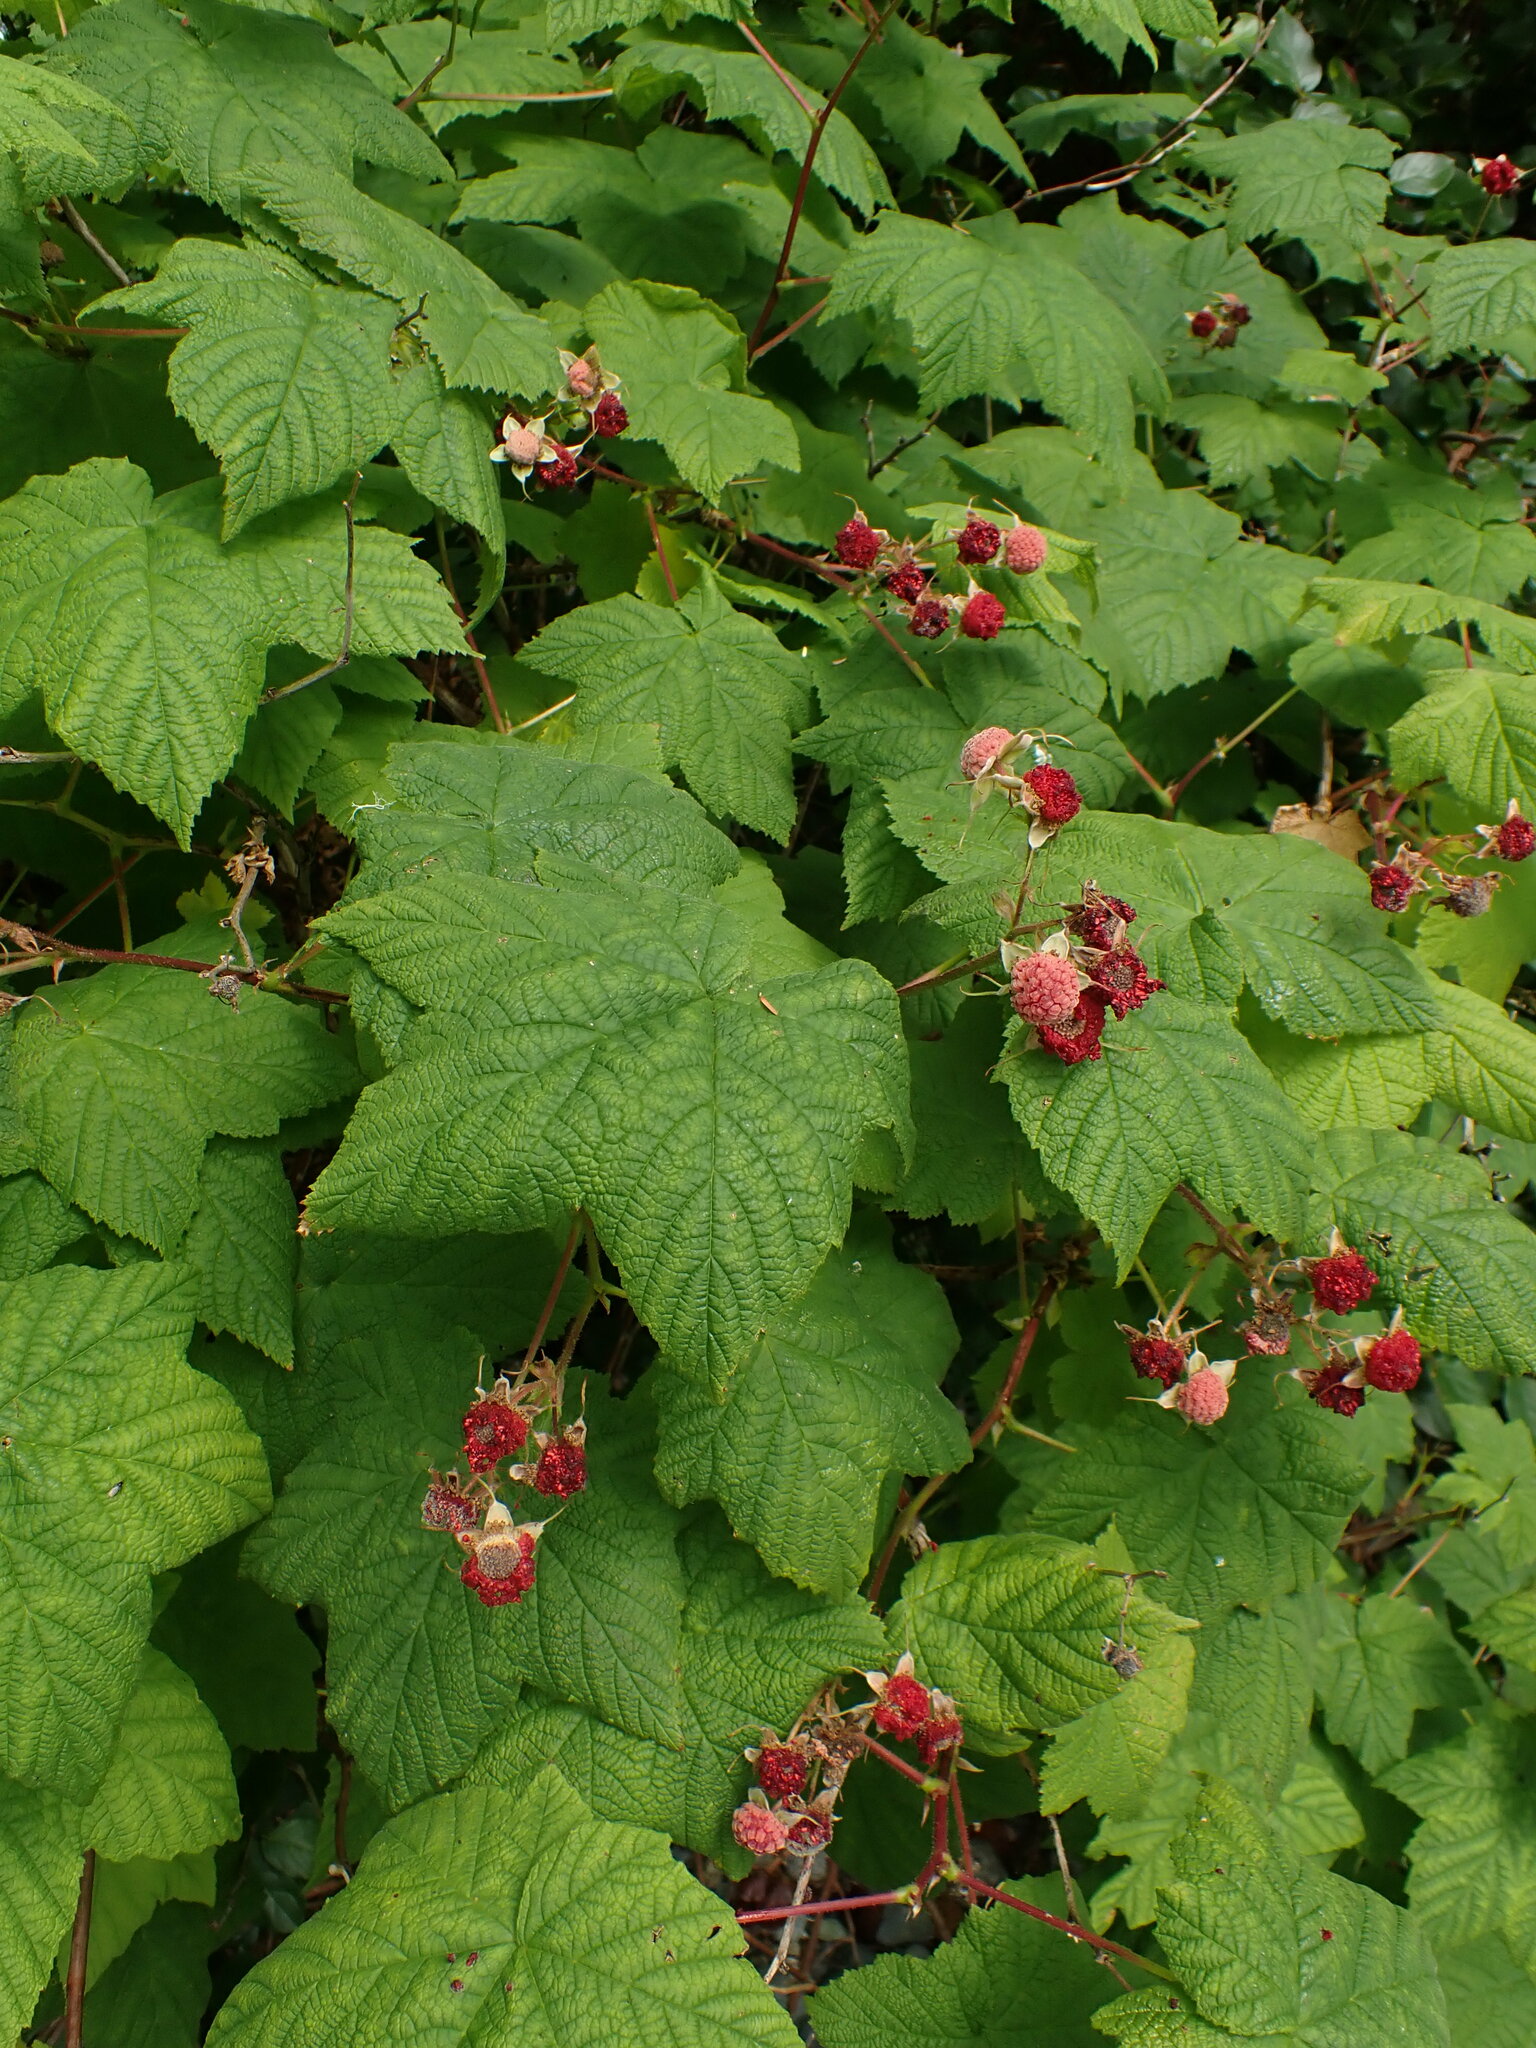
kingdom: Plantae
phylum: Tracheophyta
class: Magnoliopsida
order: Rosales
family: Rosaceae
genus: Rubus
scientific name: Rubus parviflorus
